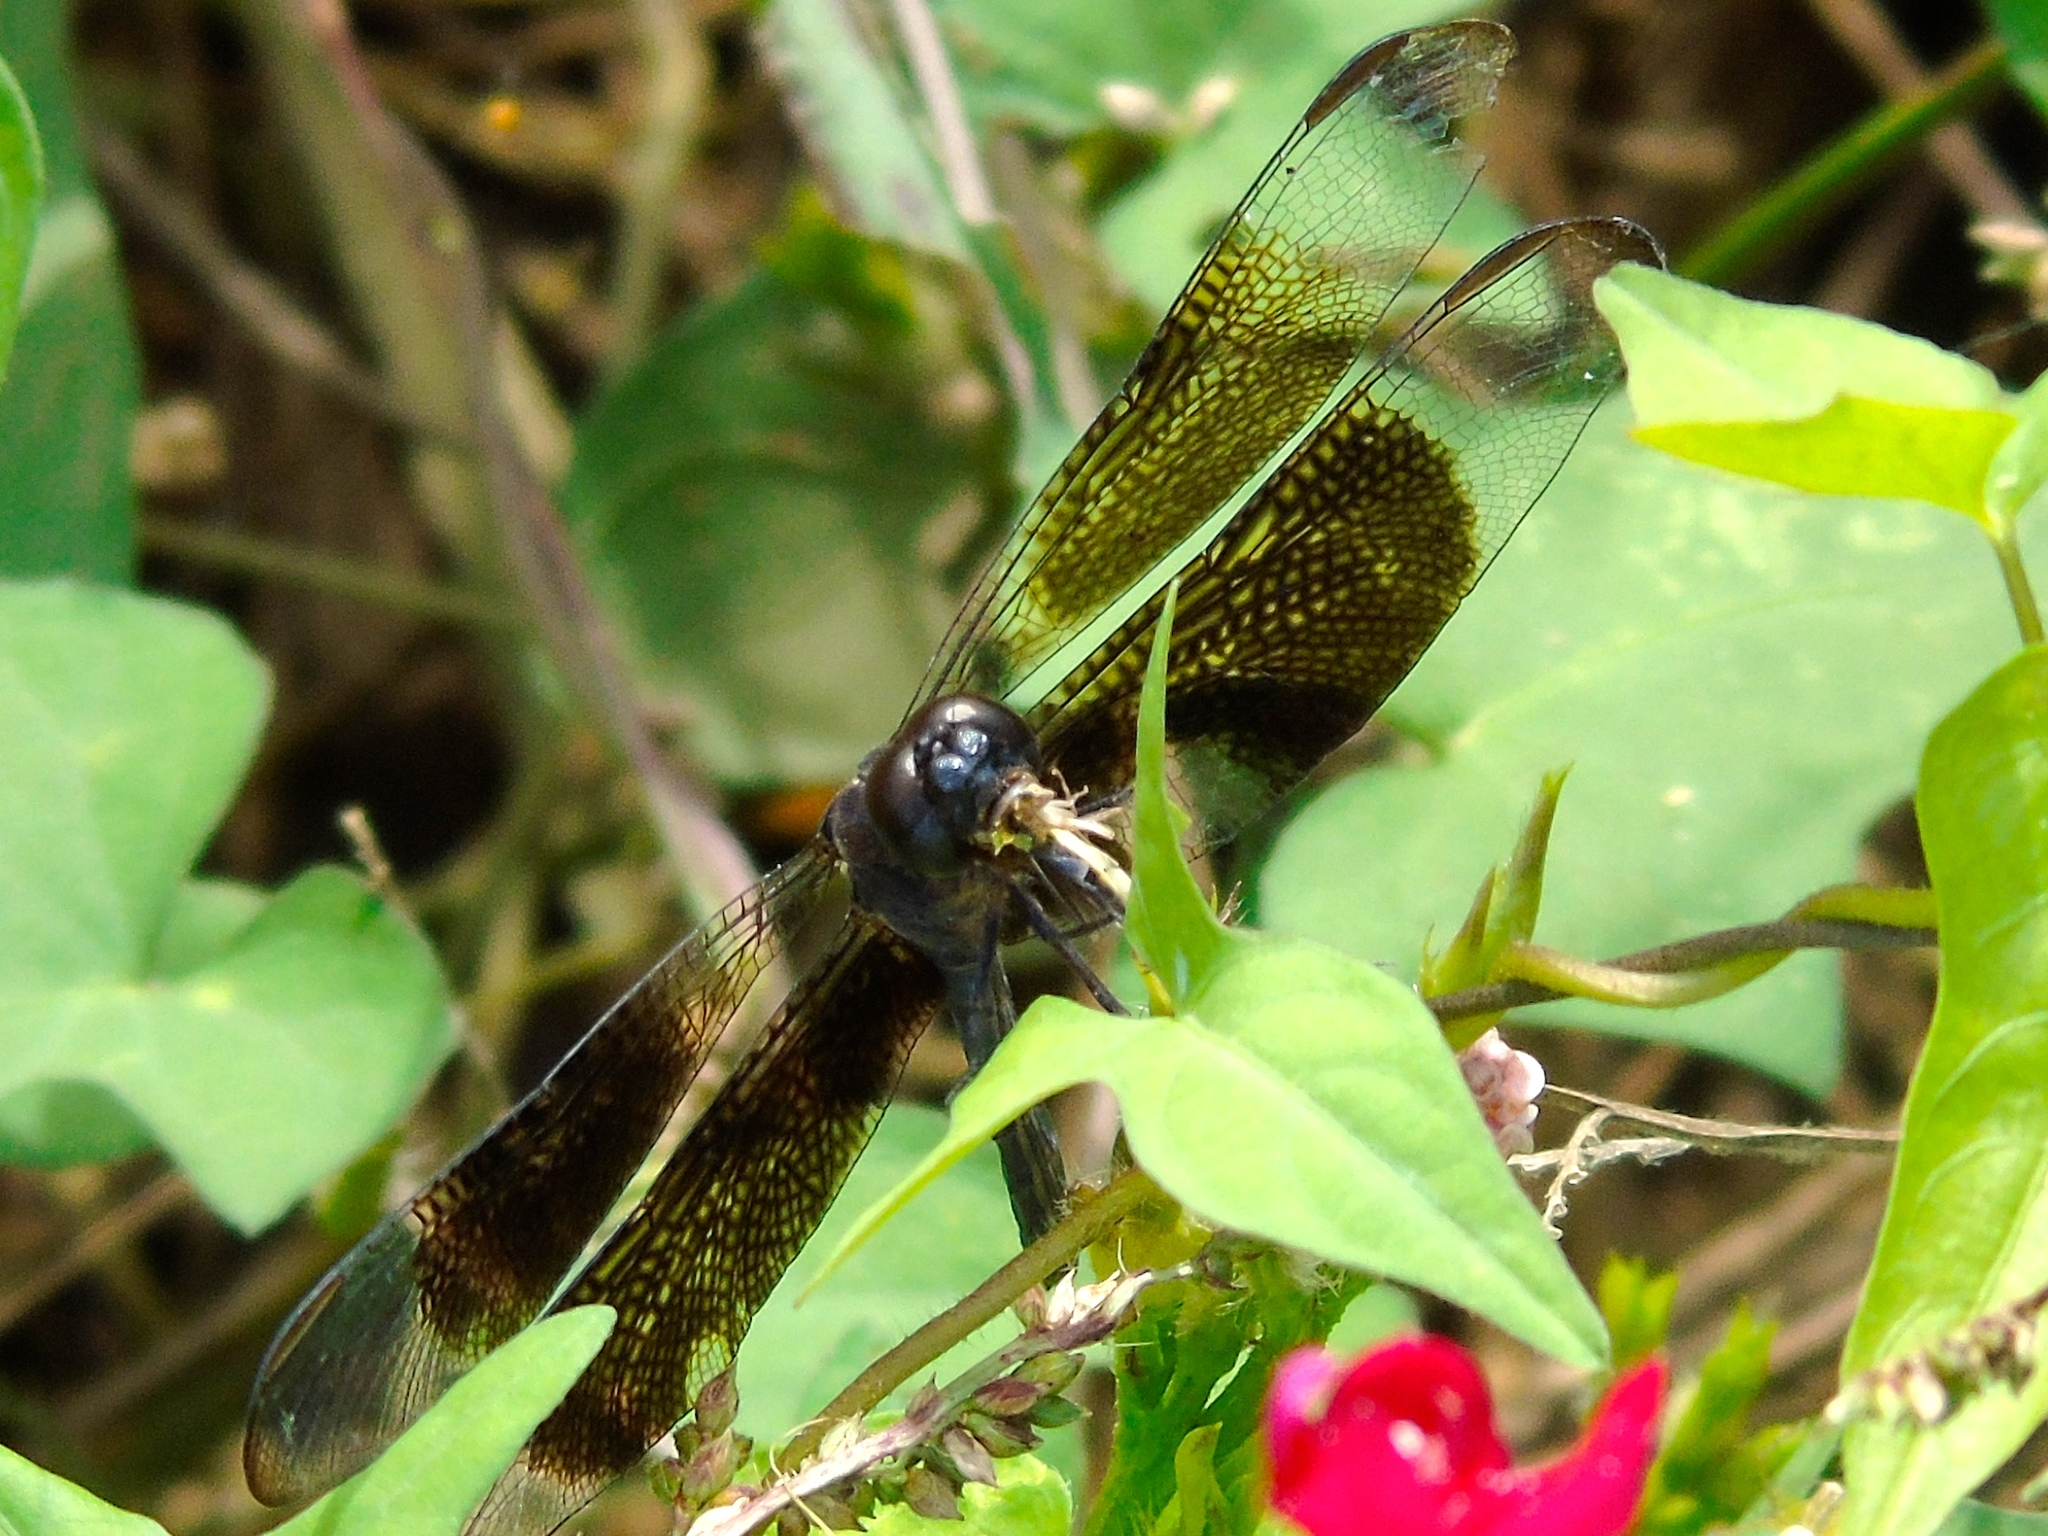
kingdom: Animalia
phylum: Arthropoda
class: Insecta
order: Odonata
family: Libellulidae
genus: Erythrodiplax
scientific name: Erythrodiplax funerea
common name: Black-winged dragonlet
